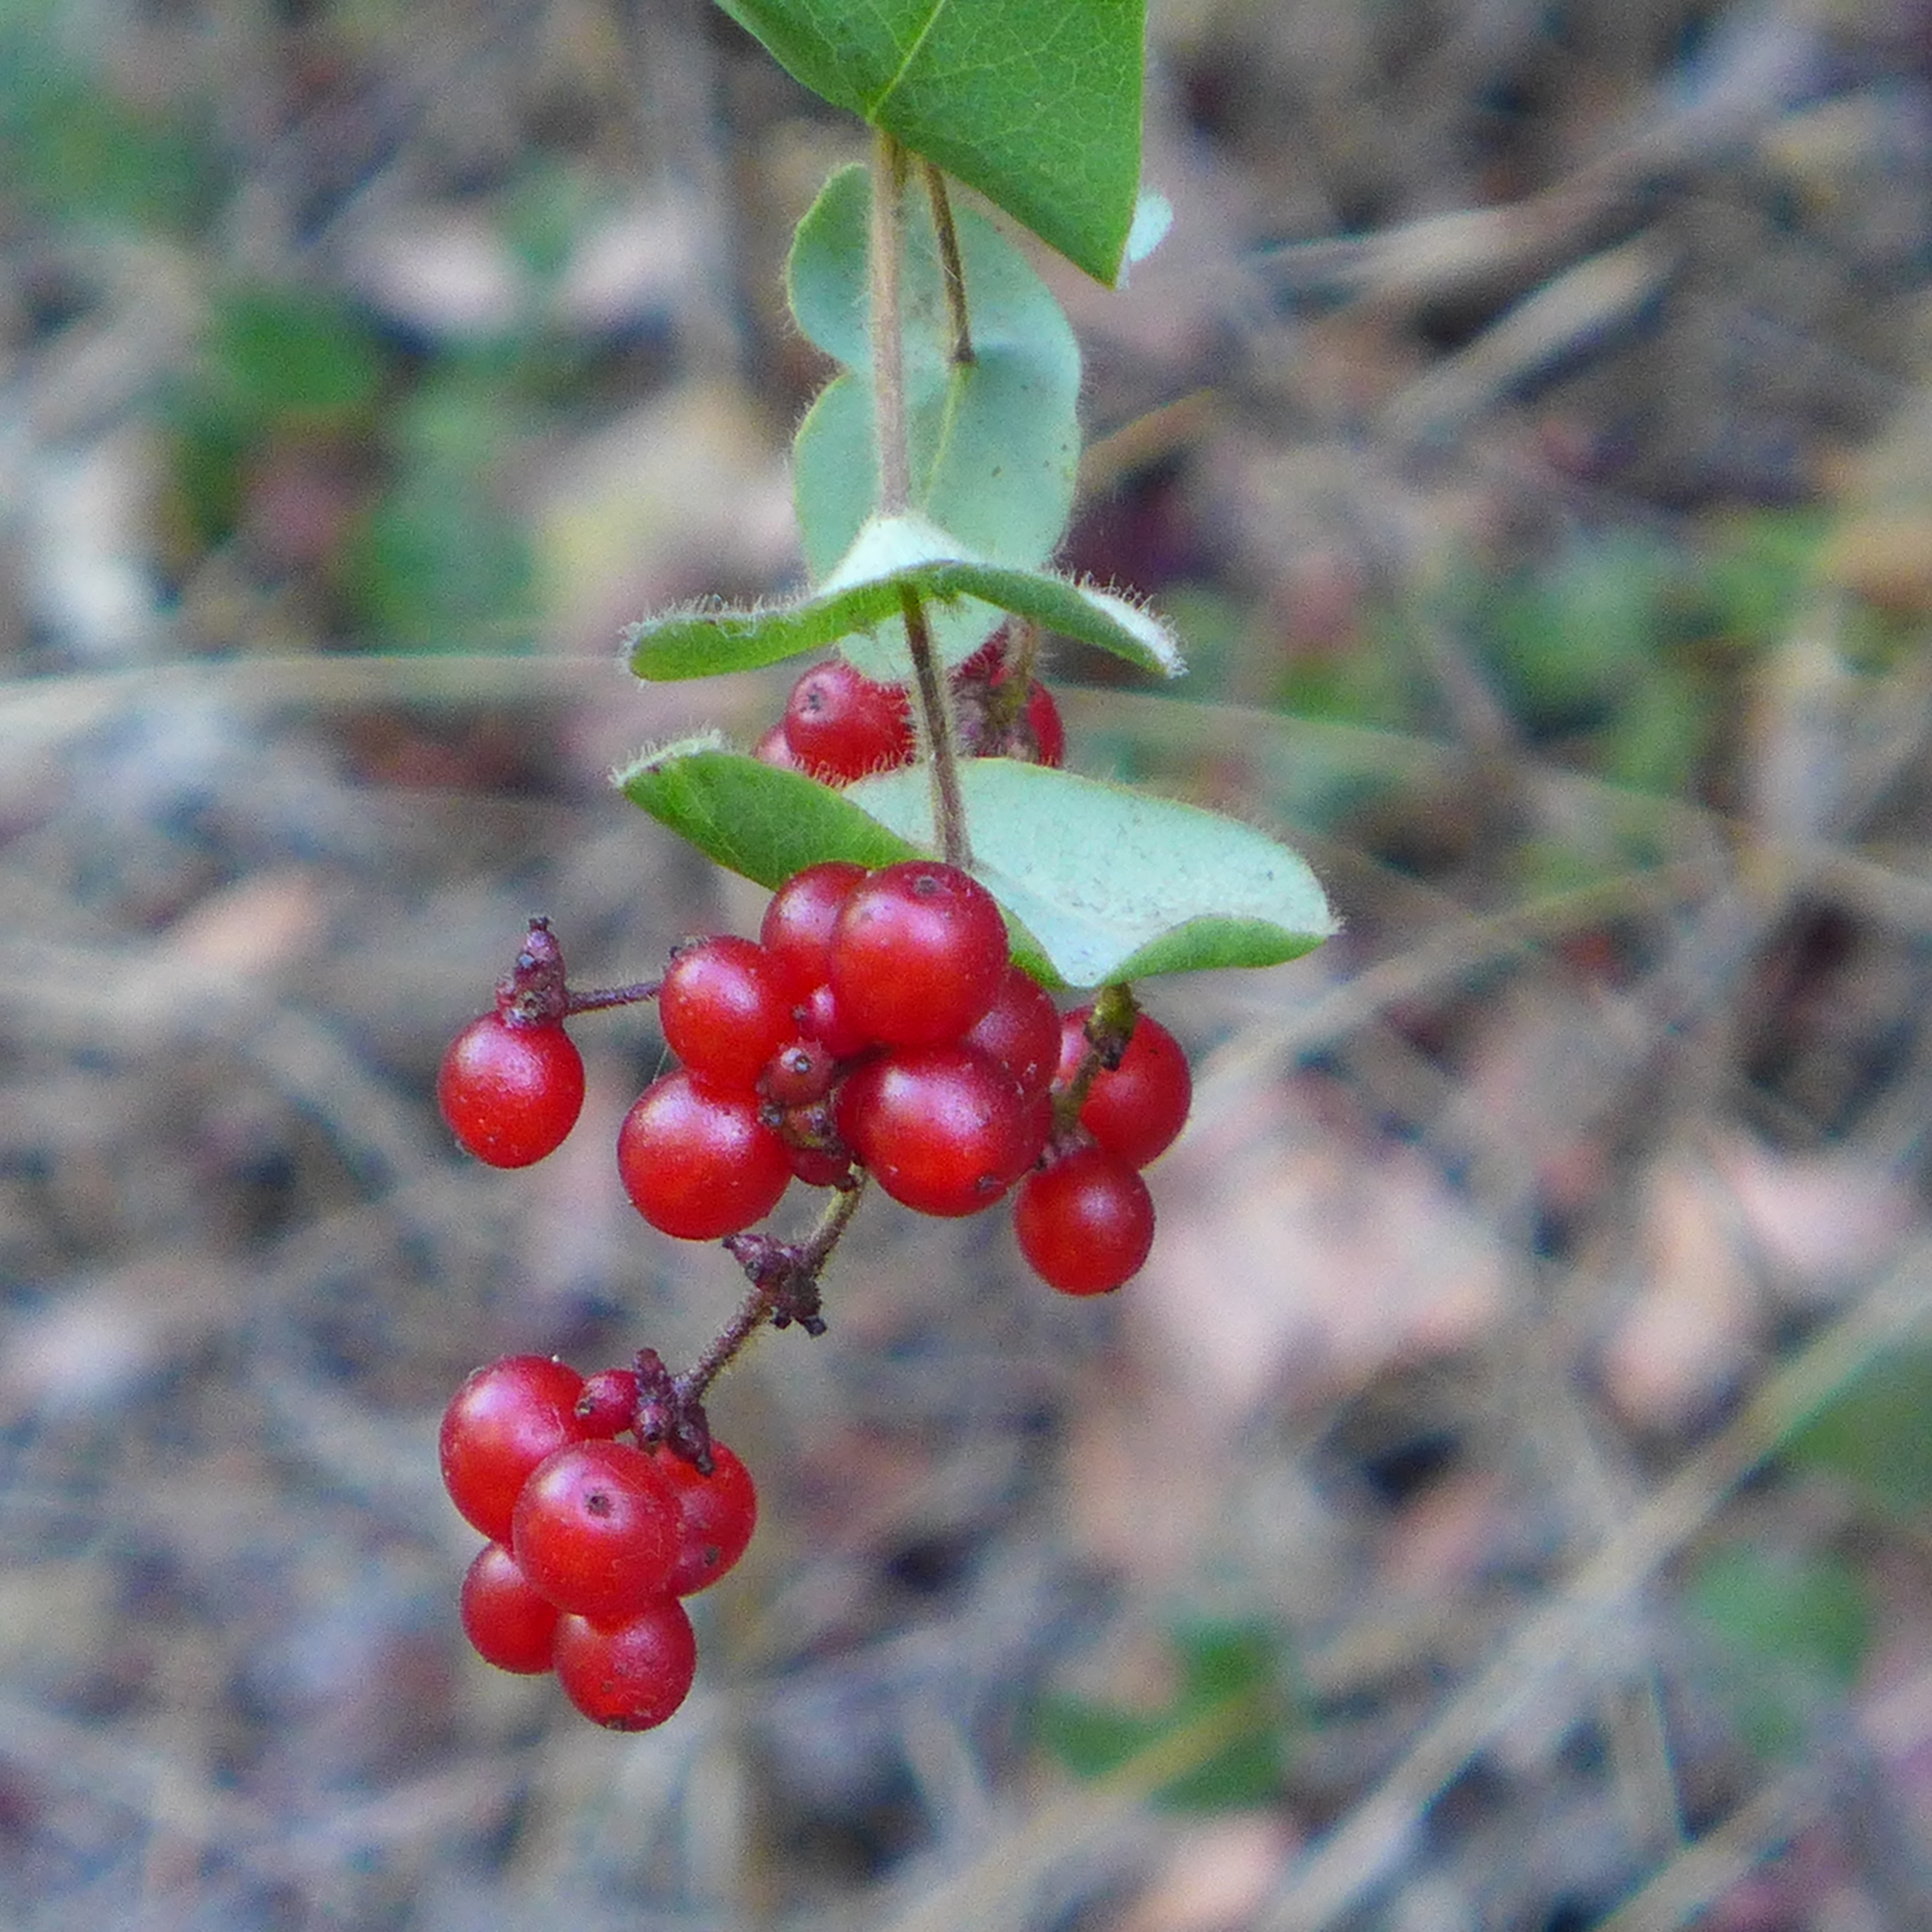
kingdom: Plantae
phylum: Tracheophyta
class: Magnoliopsida
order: Dipsacales
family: Caprifoliaceae
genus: Lonicera
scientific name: Lonicera hispidula
